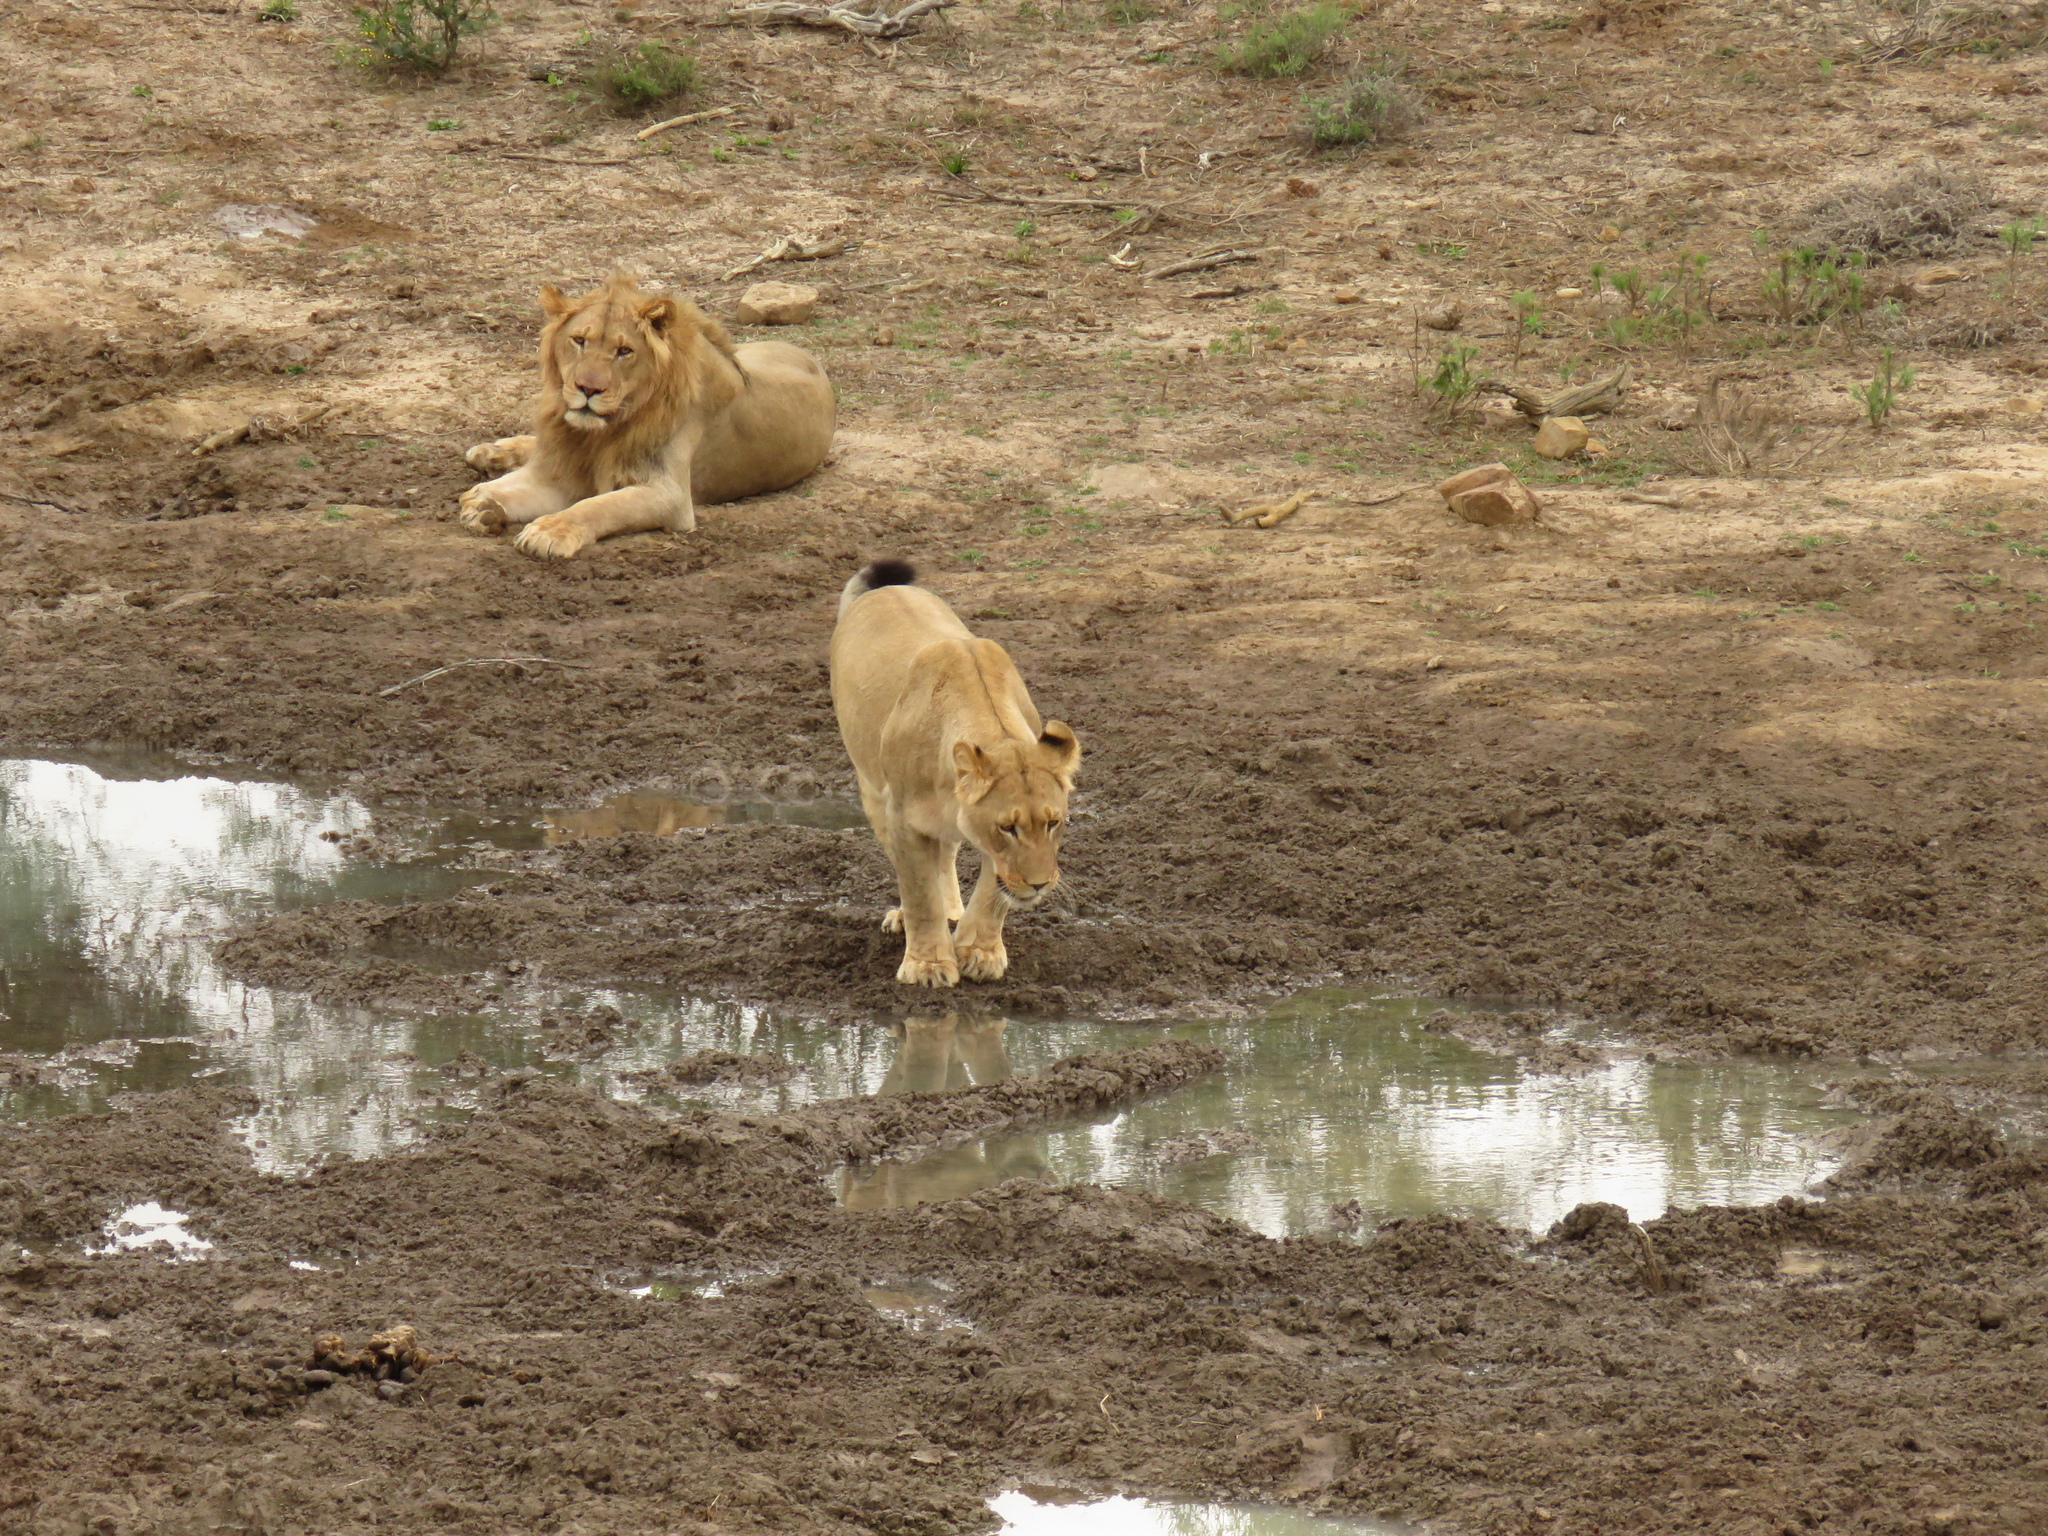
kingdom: Animalia
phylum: Chordata
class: Mammalia
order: Carnivora
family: Felidae
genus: Panthera
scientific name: Panthera leo
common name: Lion
